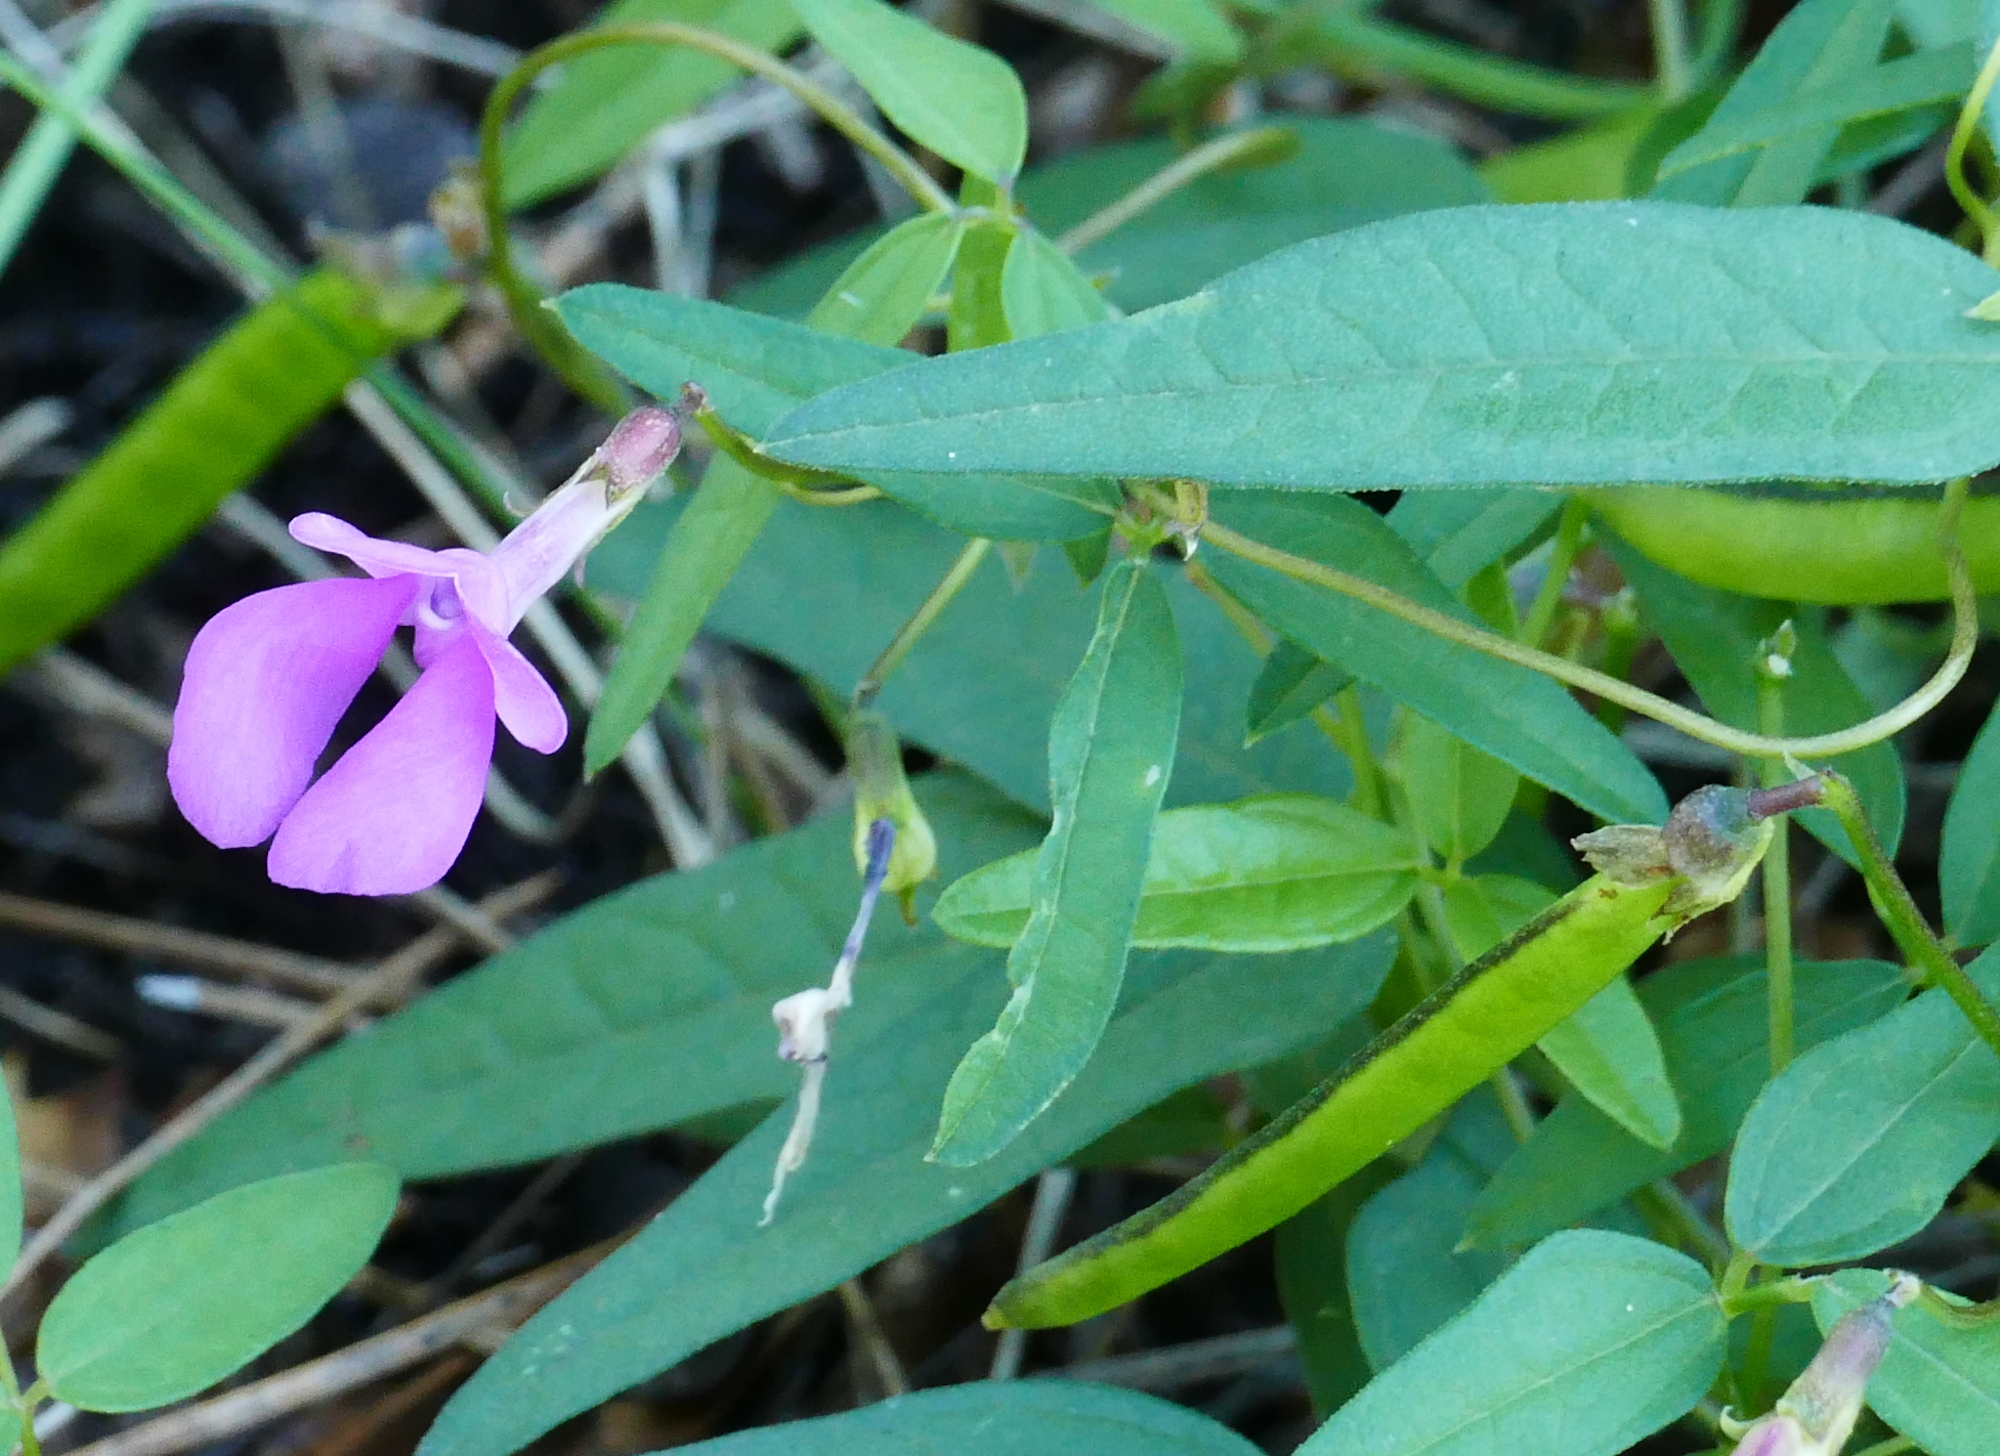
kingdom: Plantae
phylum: Tracheophyta
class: Magnoliopsida
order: Fabales
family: Fabaceae
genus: Phaseolus
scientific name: Phaseolus parvulus
